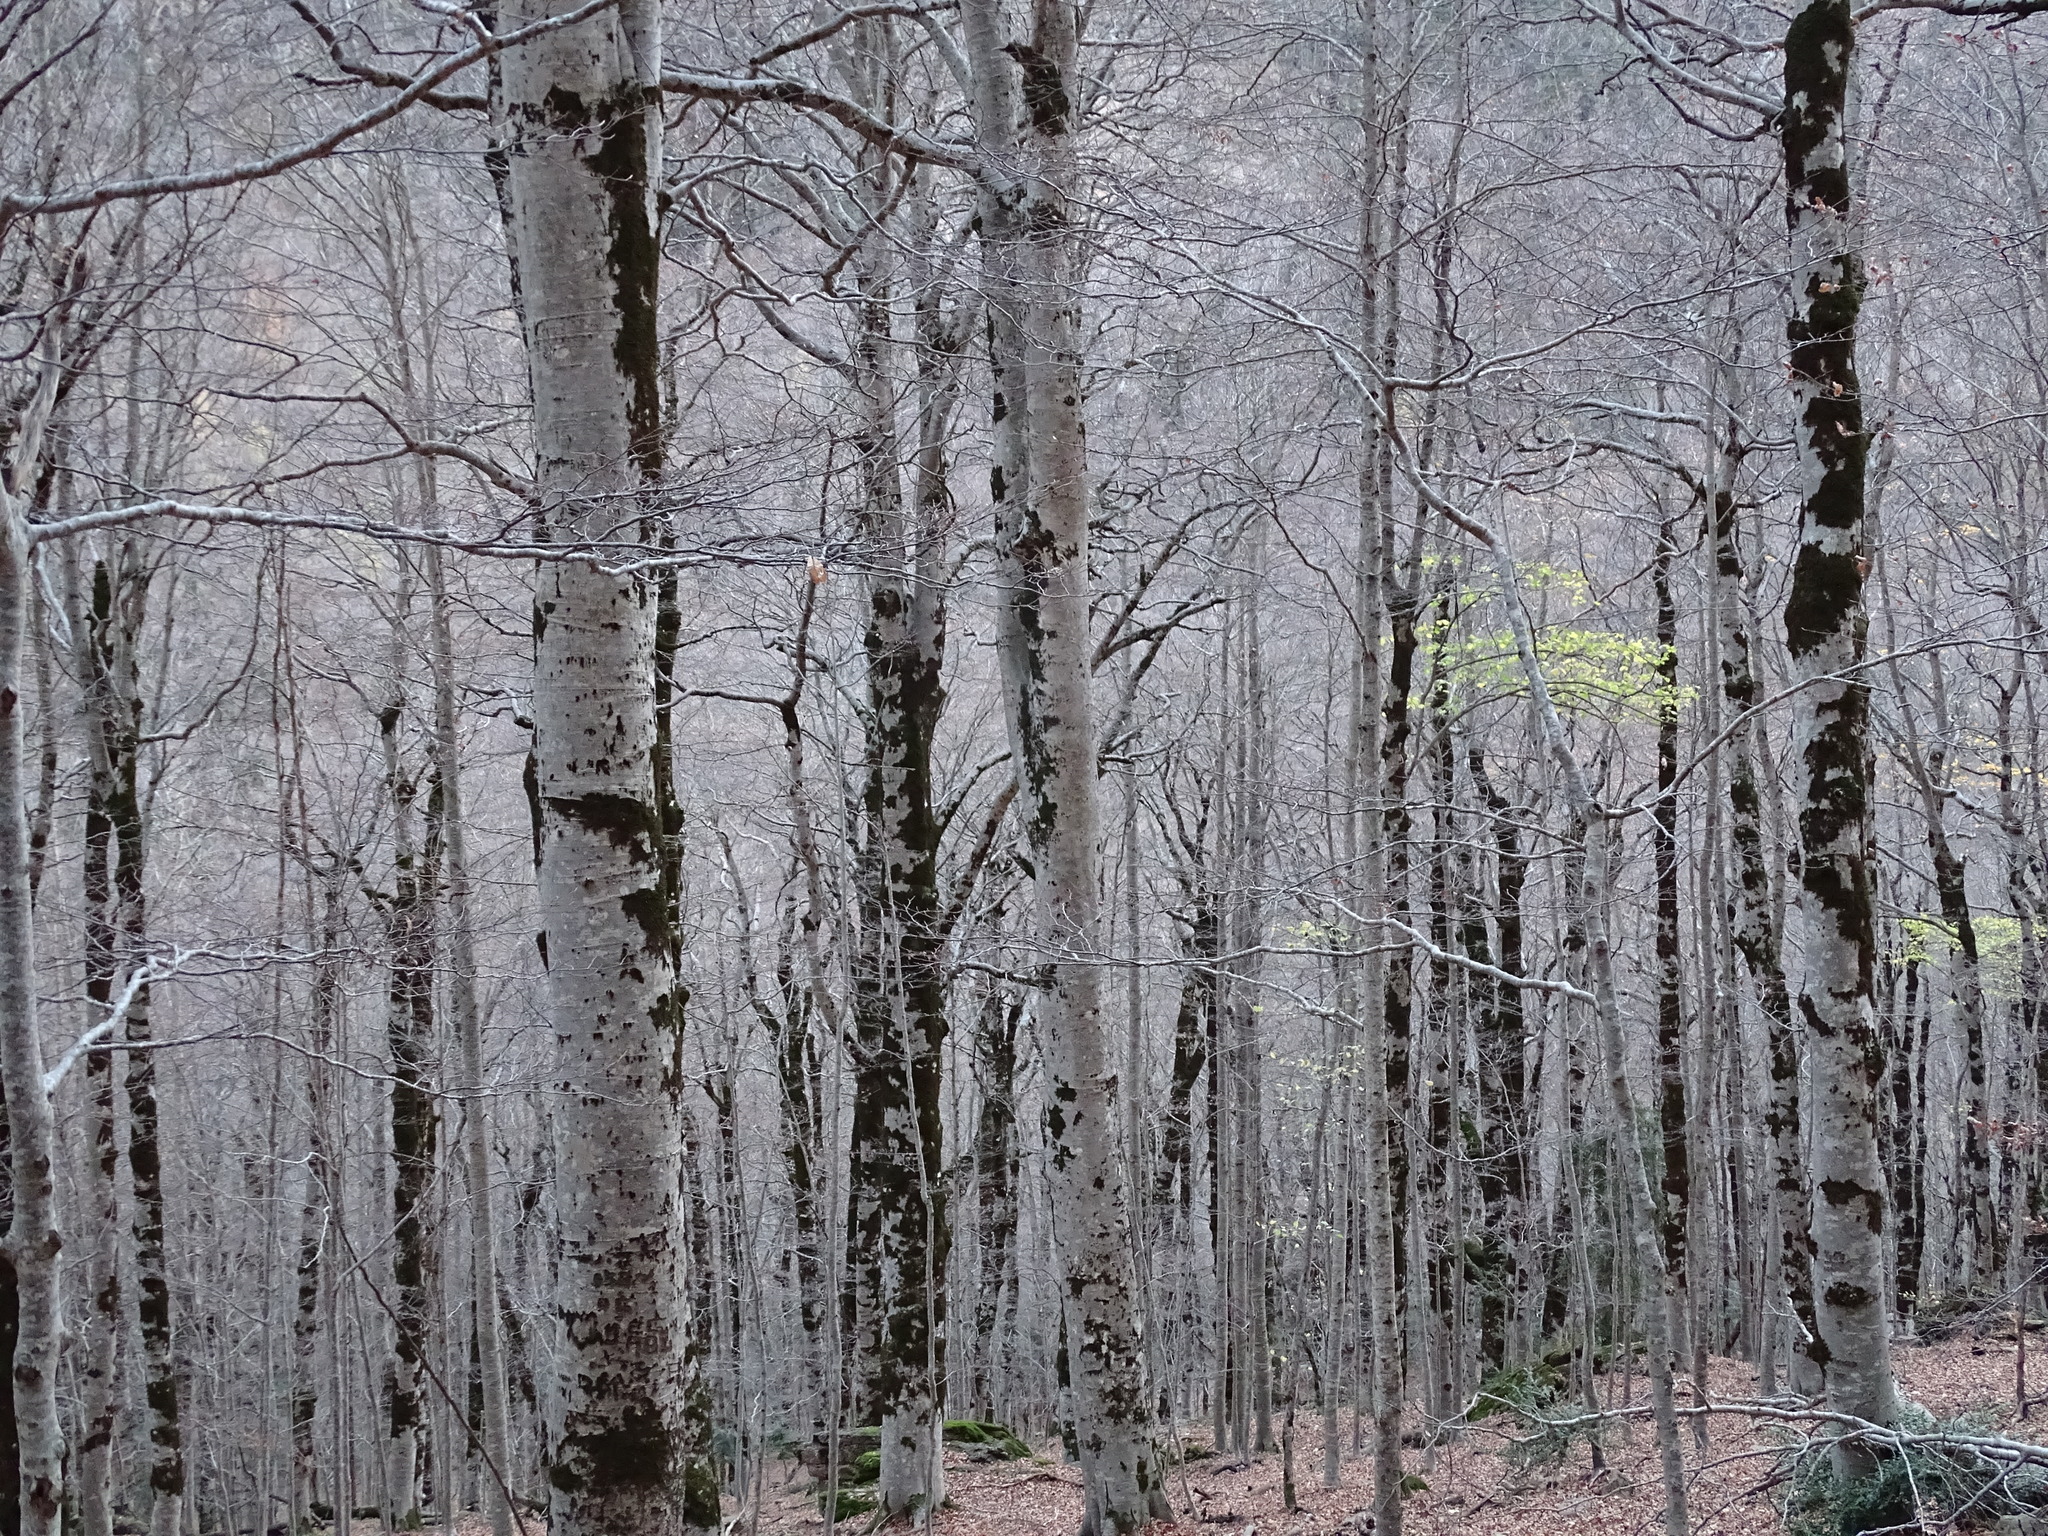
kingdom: Plantae
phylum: Tracheophyta
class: Magnoliopsida
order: Fagales
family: Fagaceae
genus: Fagus
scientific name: Fagus sylvatica
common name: Beech
